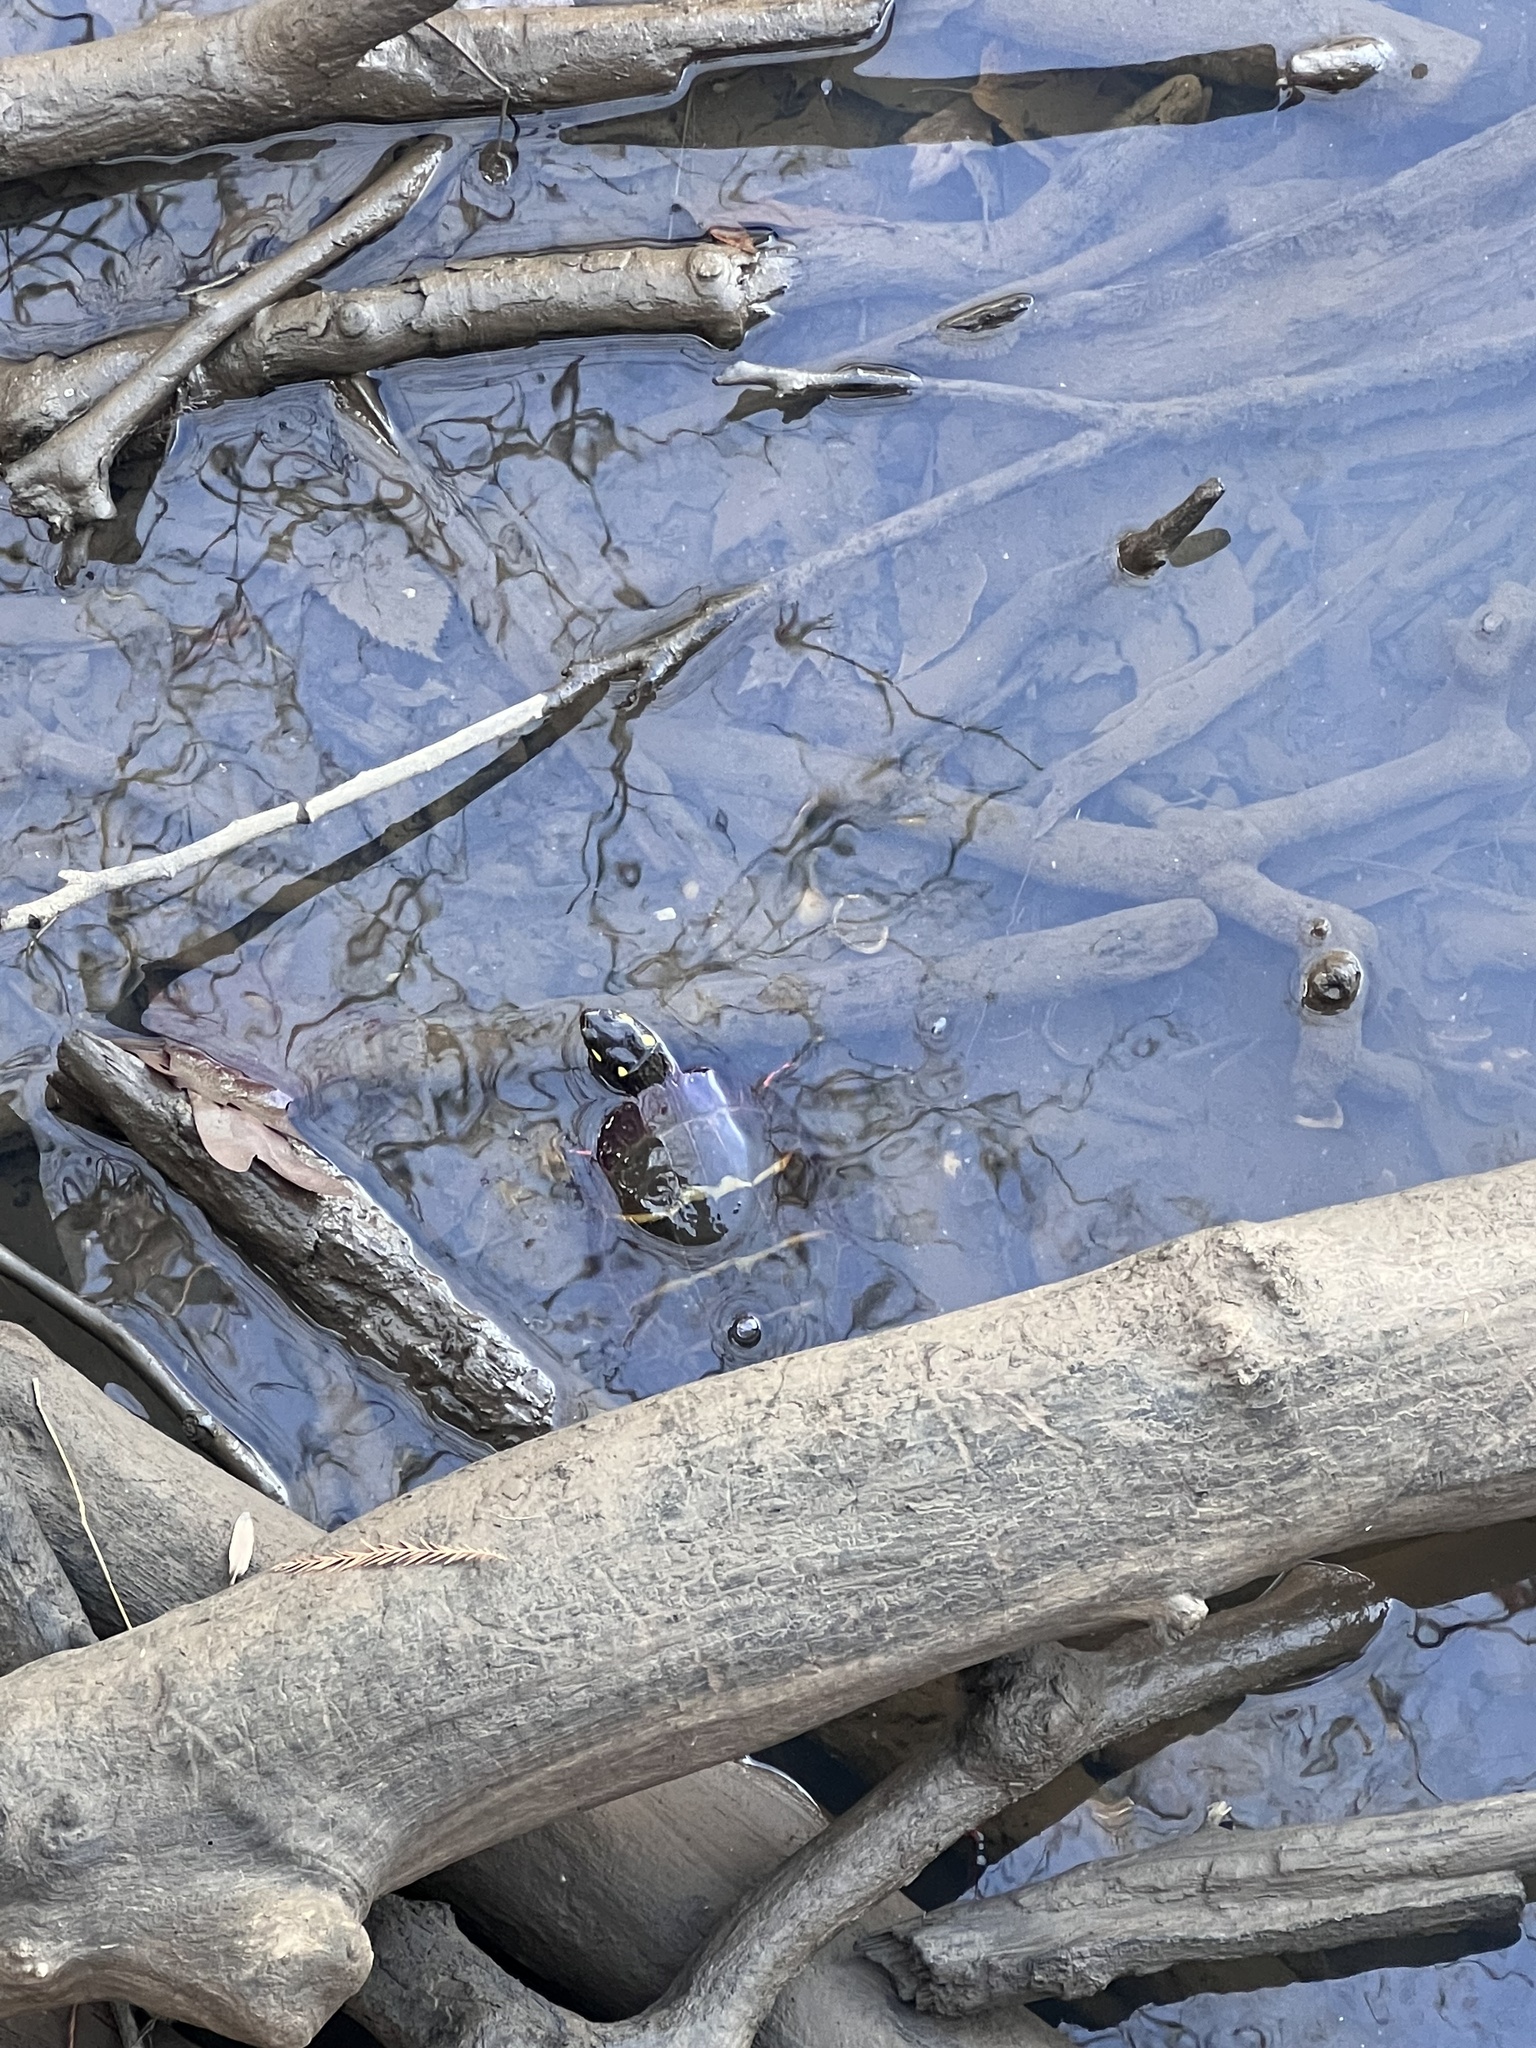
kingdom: Animalia
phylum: Chordata
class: Testudines
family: Emydidae
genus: Chrysemys
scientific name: Chrysemys picta
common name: Painted turtle
